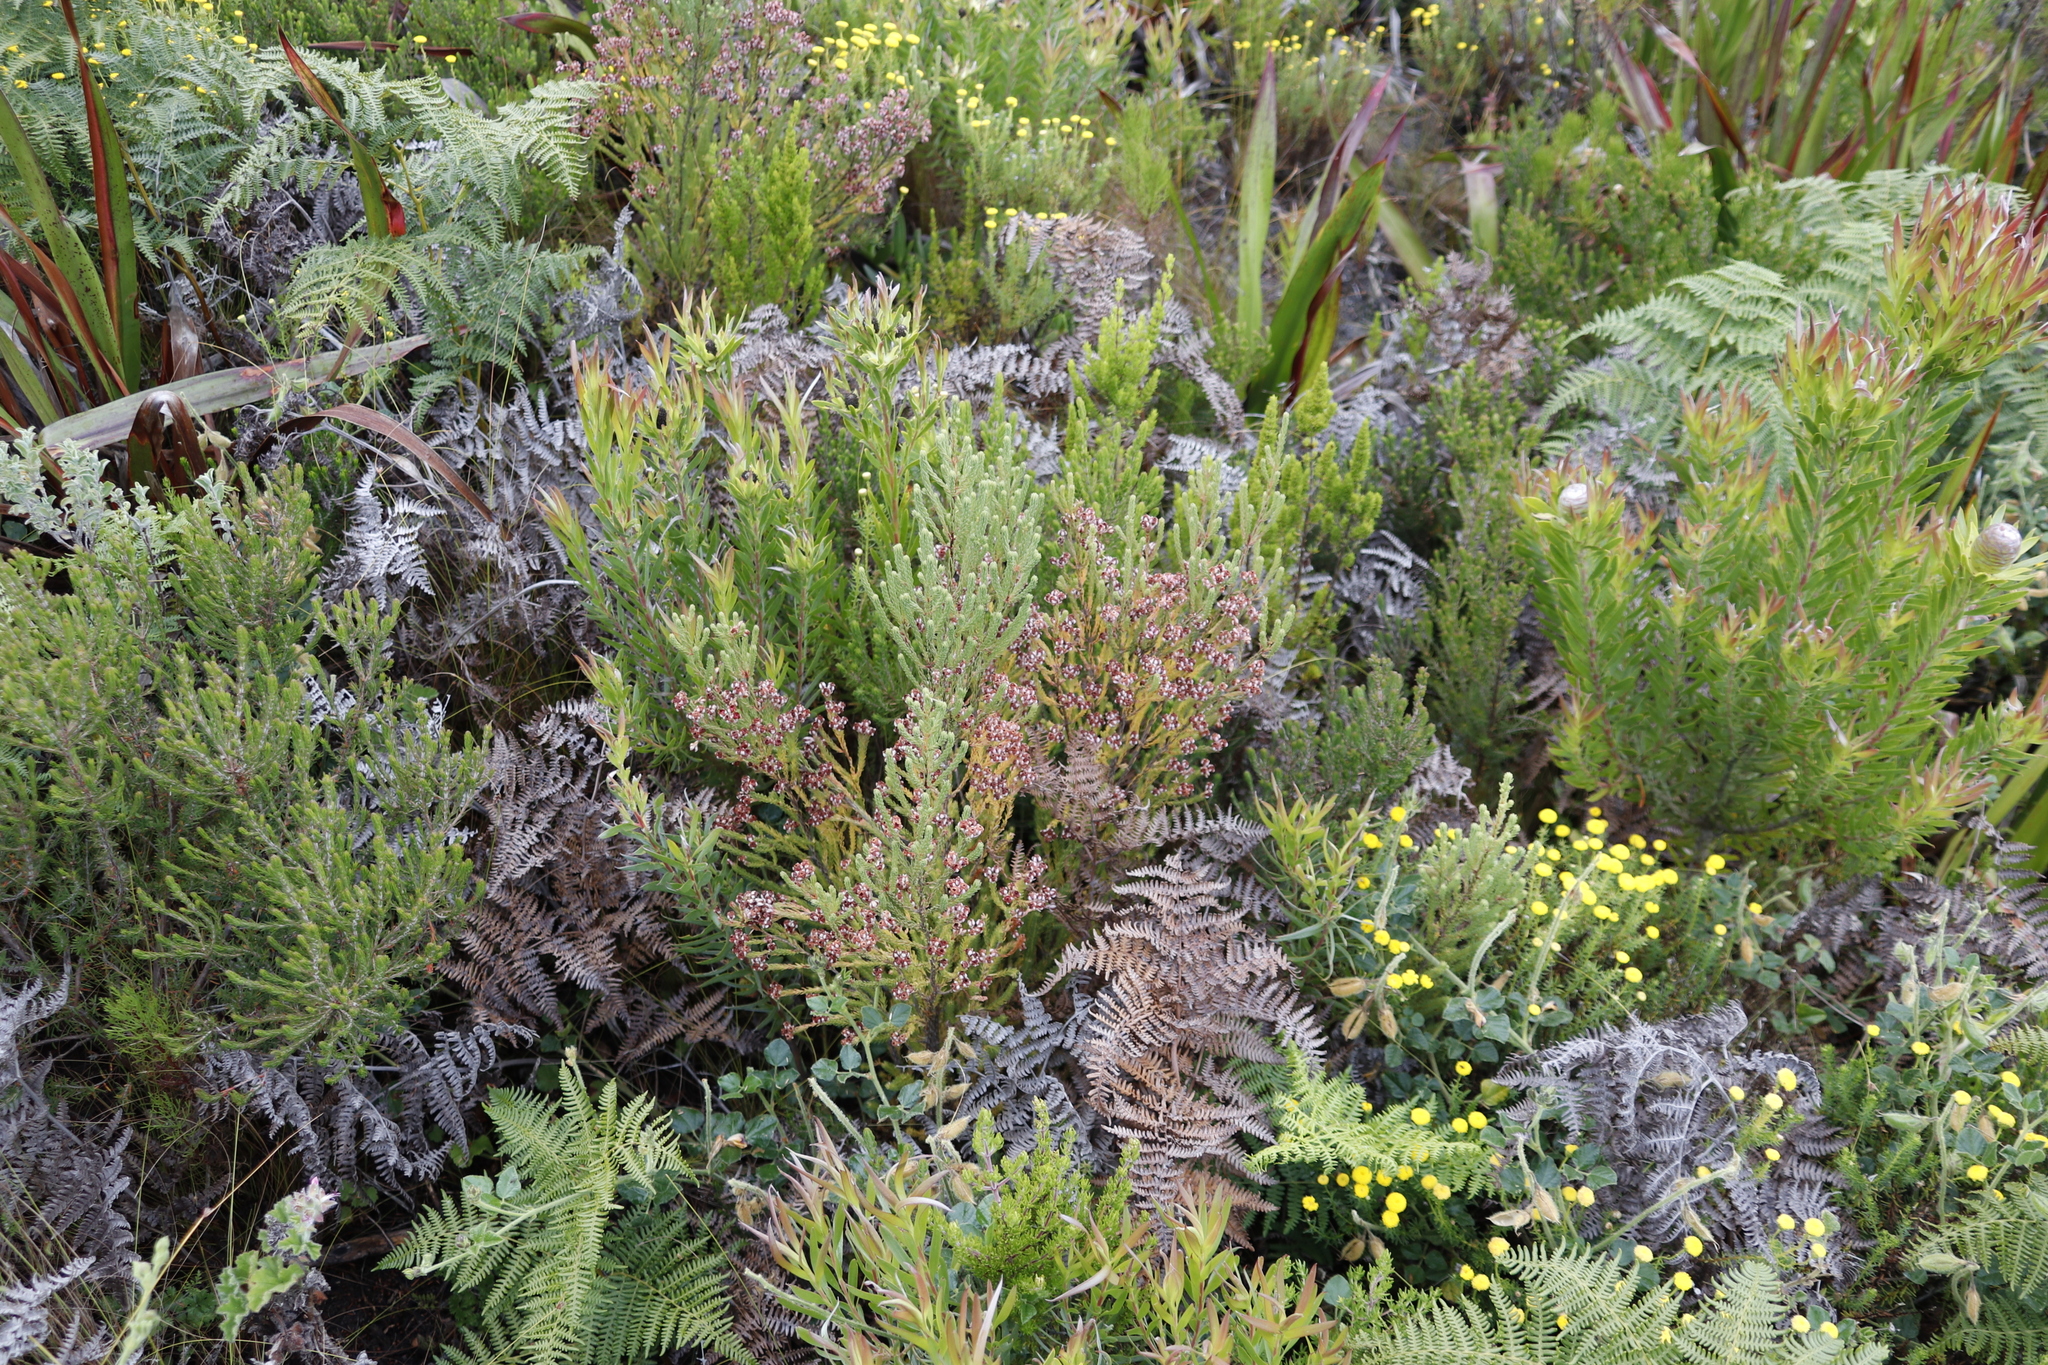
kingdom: Plantae
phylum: Tracheophyta
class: Magnoliopsida
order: Proteales
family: Proteaceae
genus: Leucadendron
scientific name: Leucadendron xanthoconus
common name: Sickle-leaf conebush
